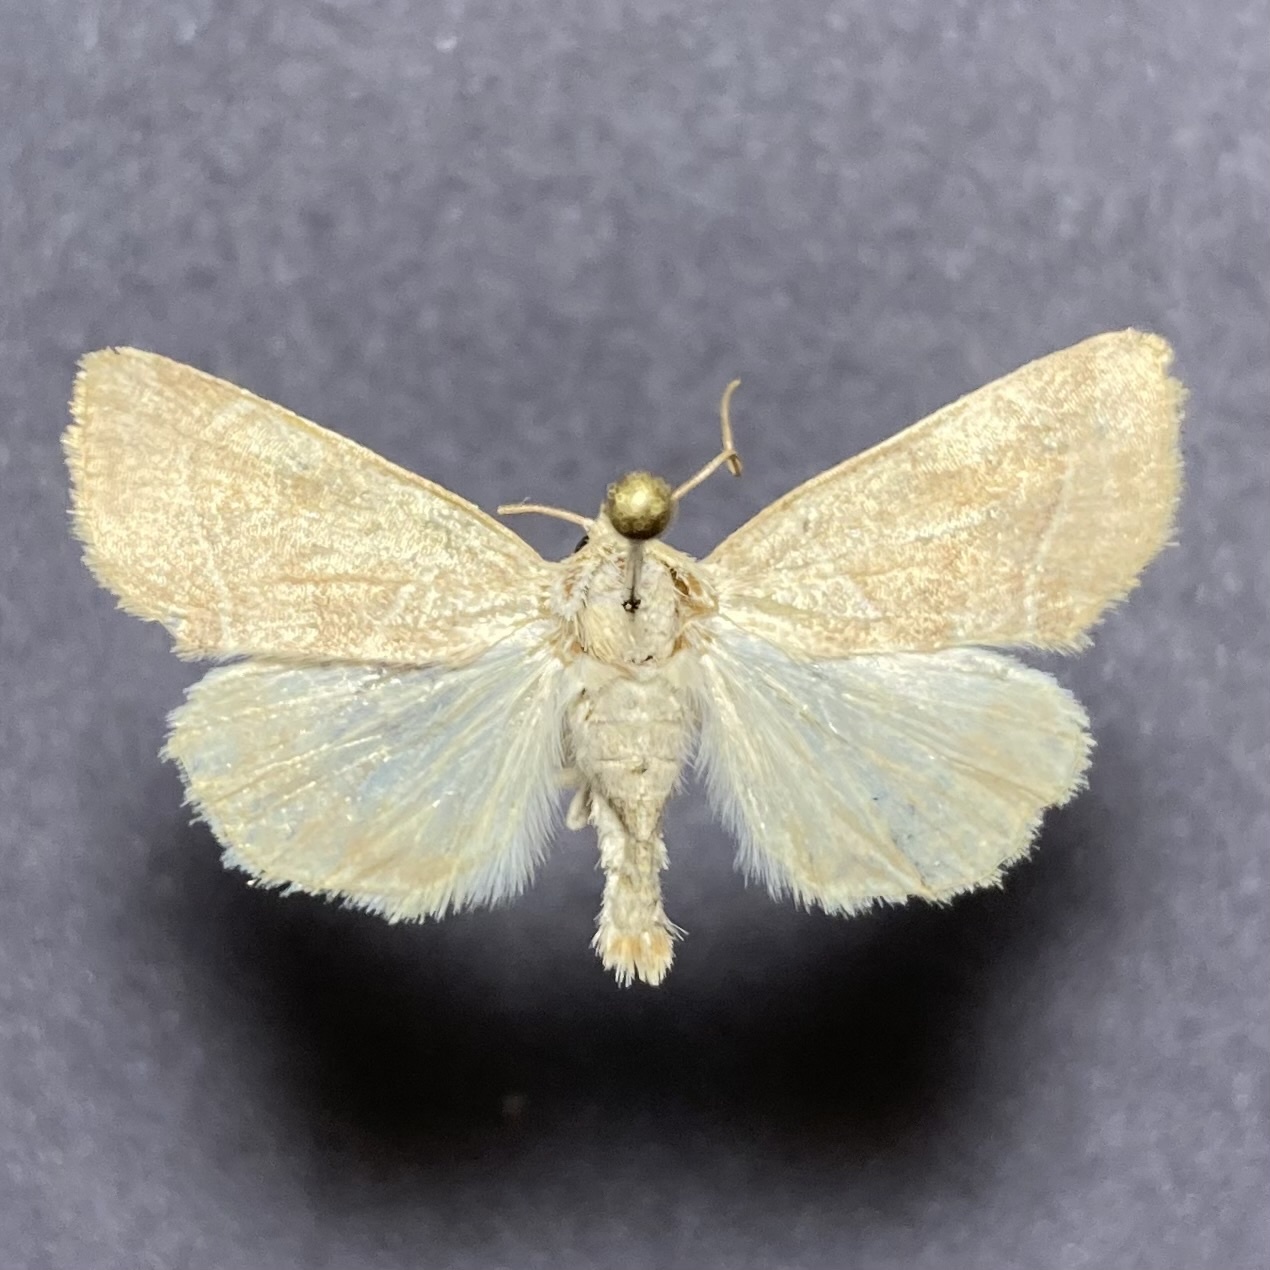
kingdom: Animalia
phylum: Arthropoda
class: Insecta
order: Lepidoptera
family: Noctuidae
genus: Cosmia
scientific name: Cosmia calami
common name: American dun-bar moth
